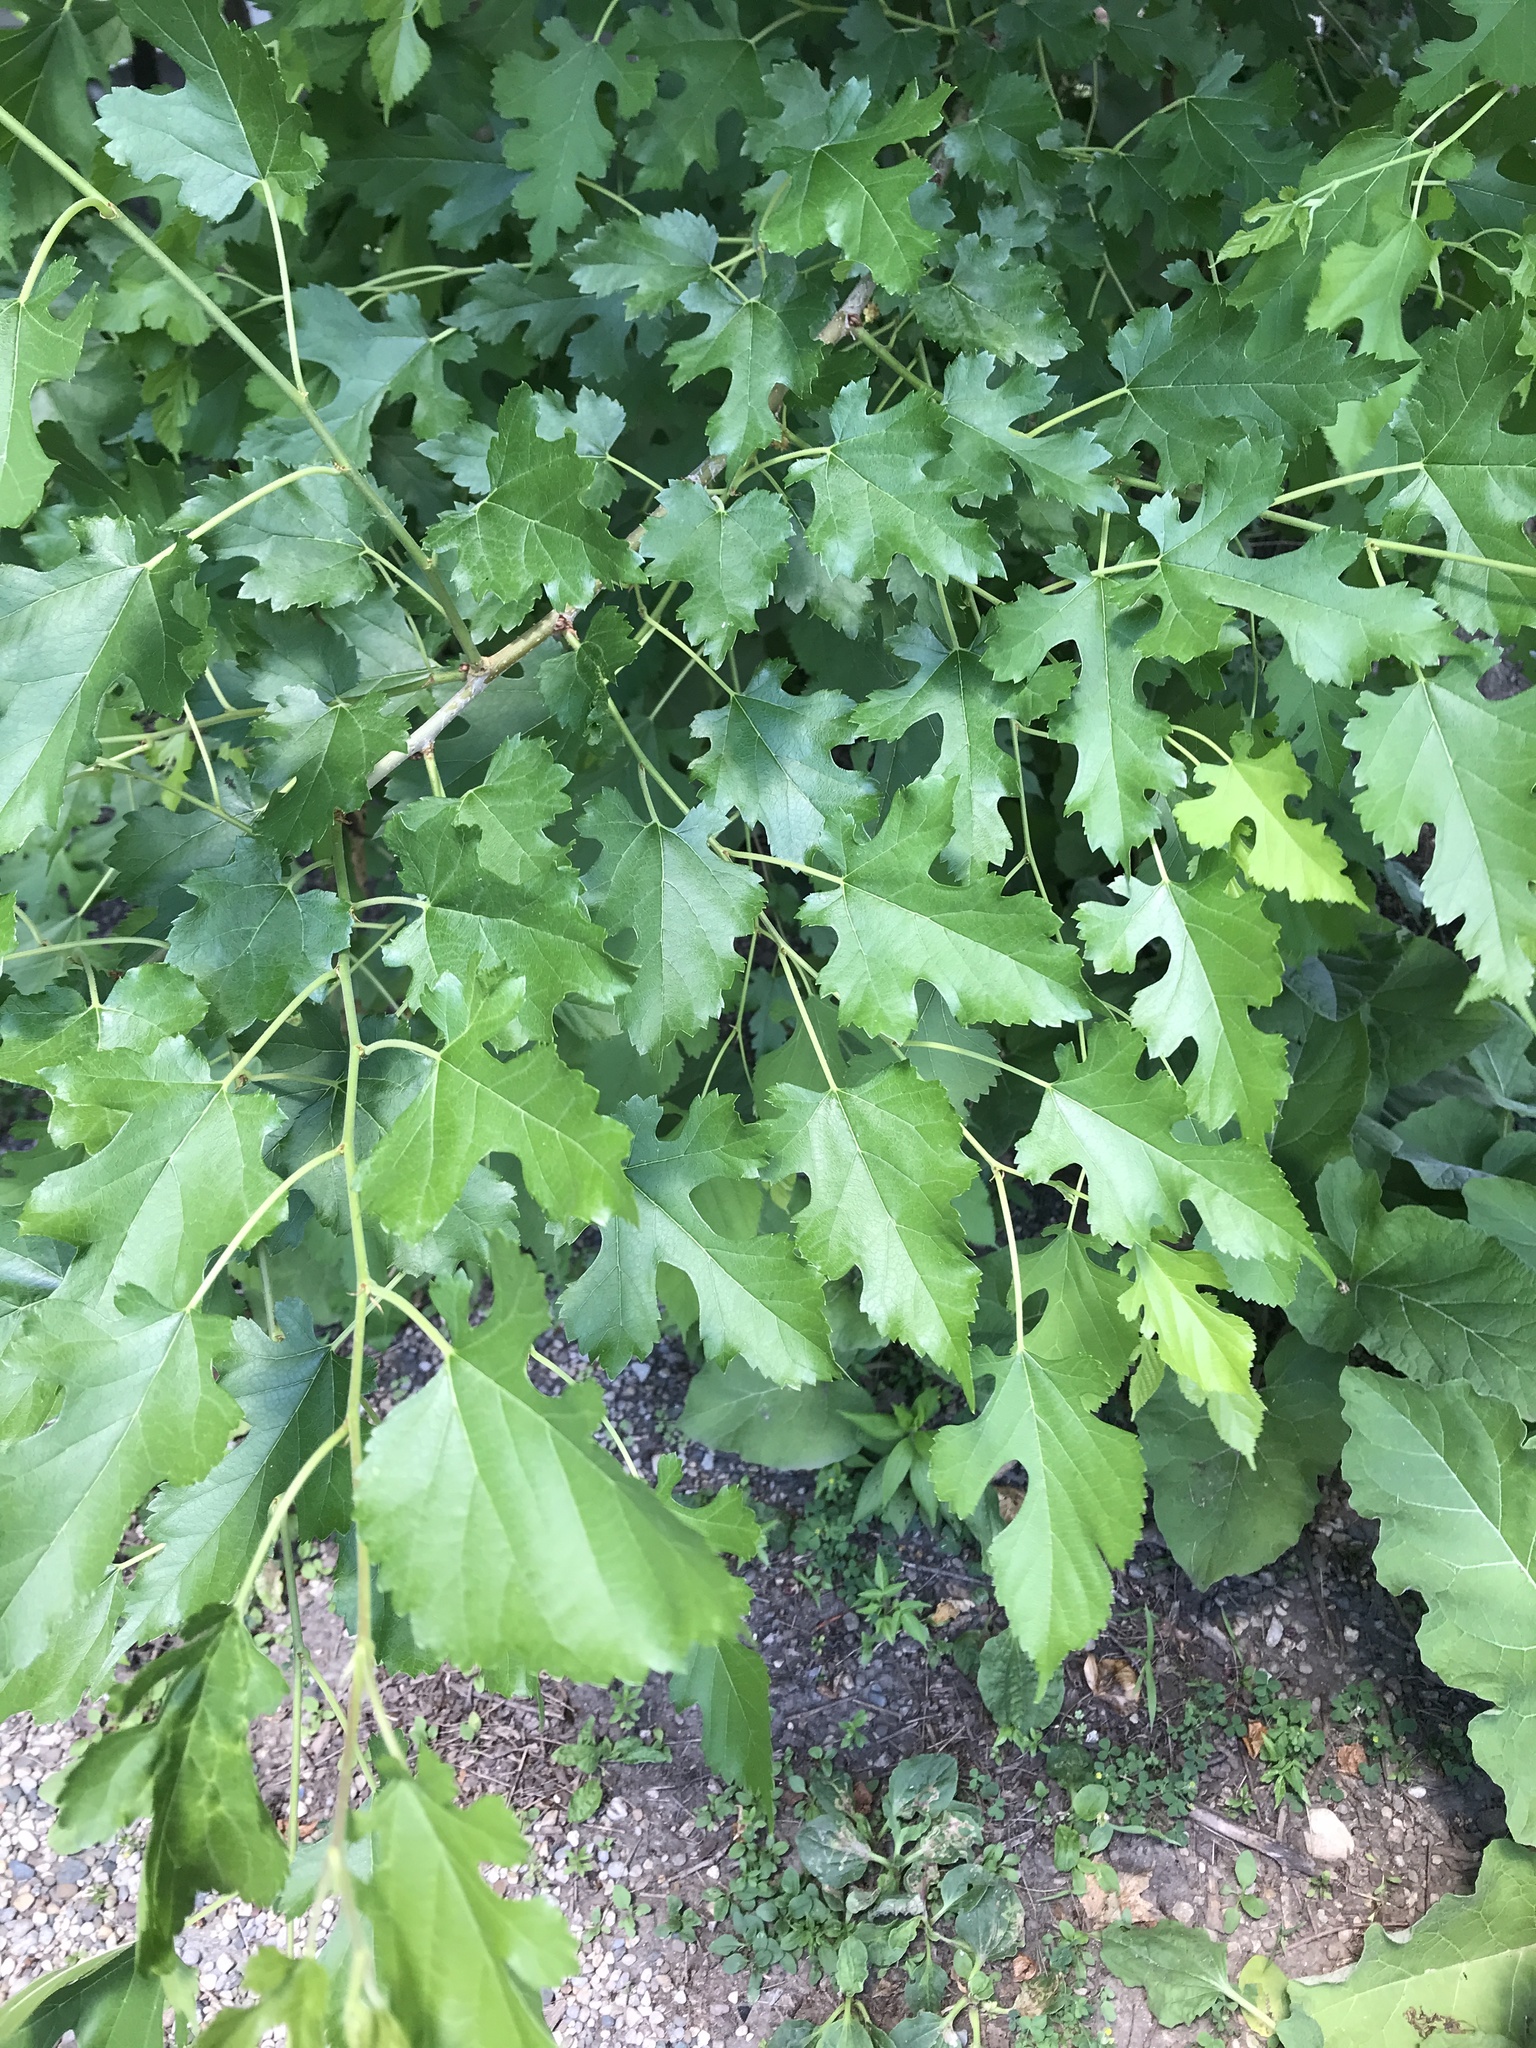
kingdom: Plantae
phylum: Tracheophyta
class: Magnoliopsida
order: Rosales
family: Moraceae
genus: Morus
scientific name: Morus alba
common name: White mulberry
